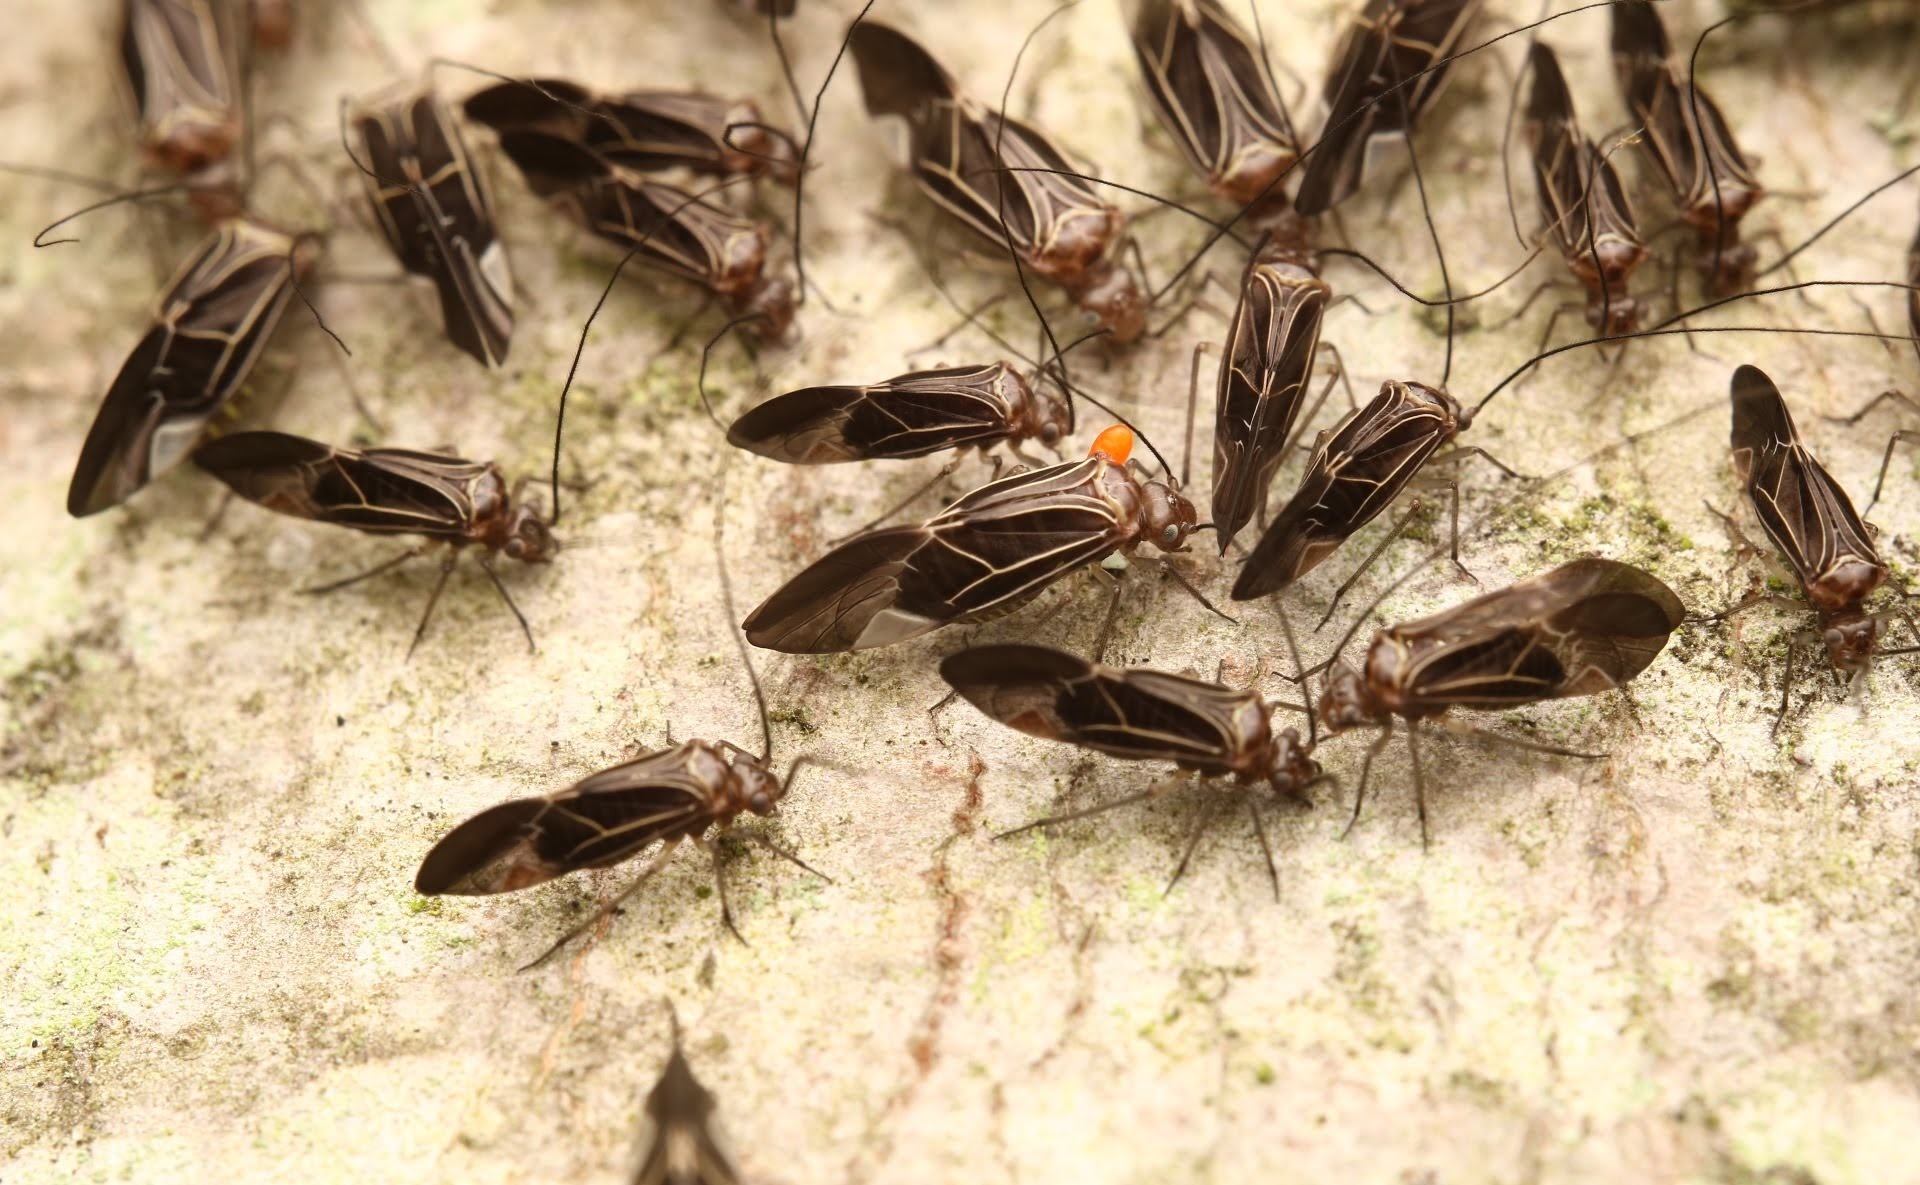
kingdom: Animalia
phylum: Arthropoda
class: Insecta
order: Psocodea
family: Psocidae
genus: Cerastipsocus
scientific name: Cerastipsocus venosus
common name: Tree cattle
